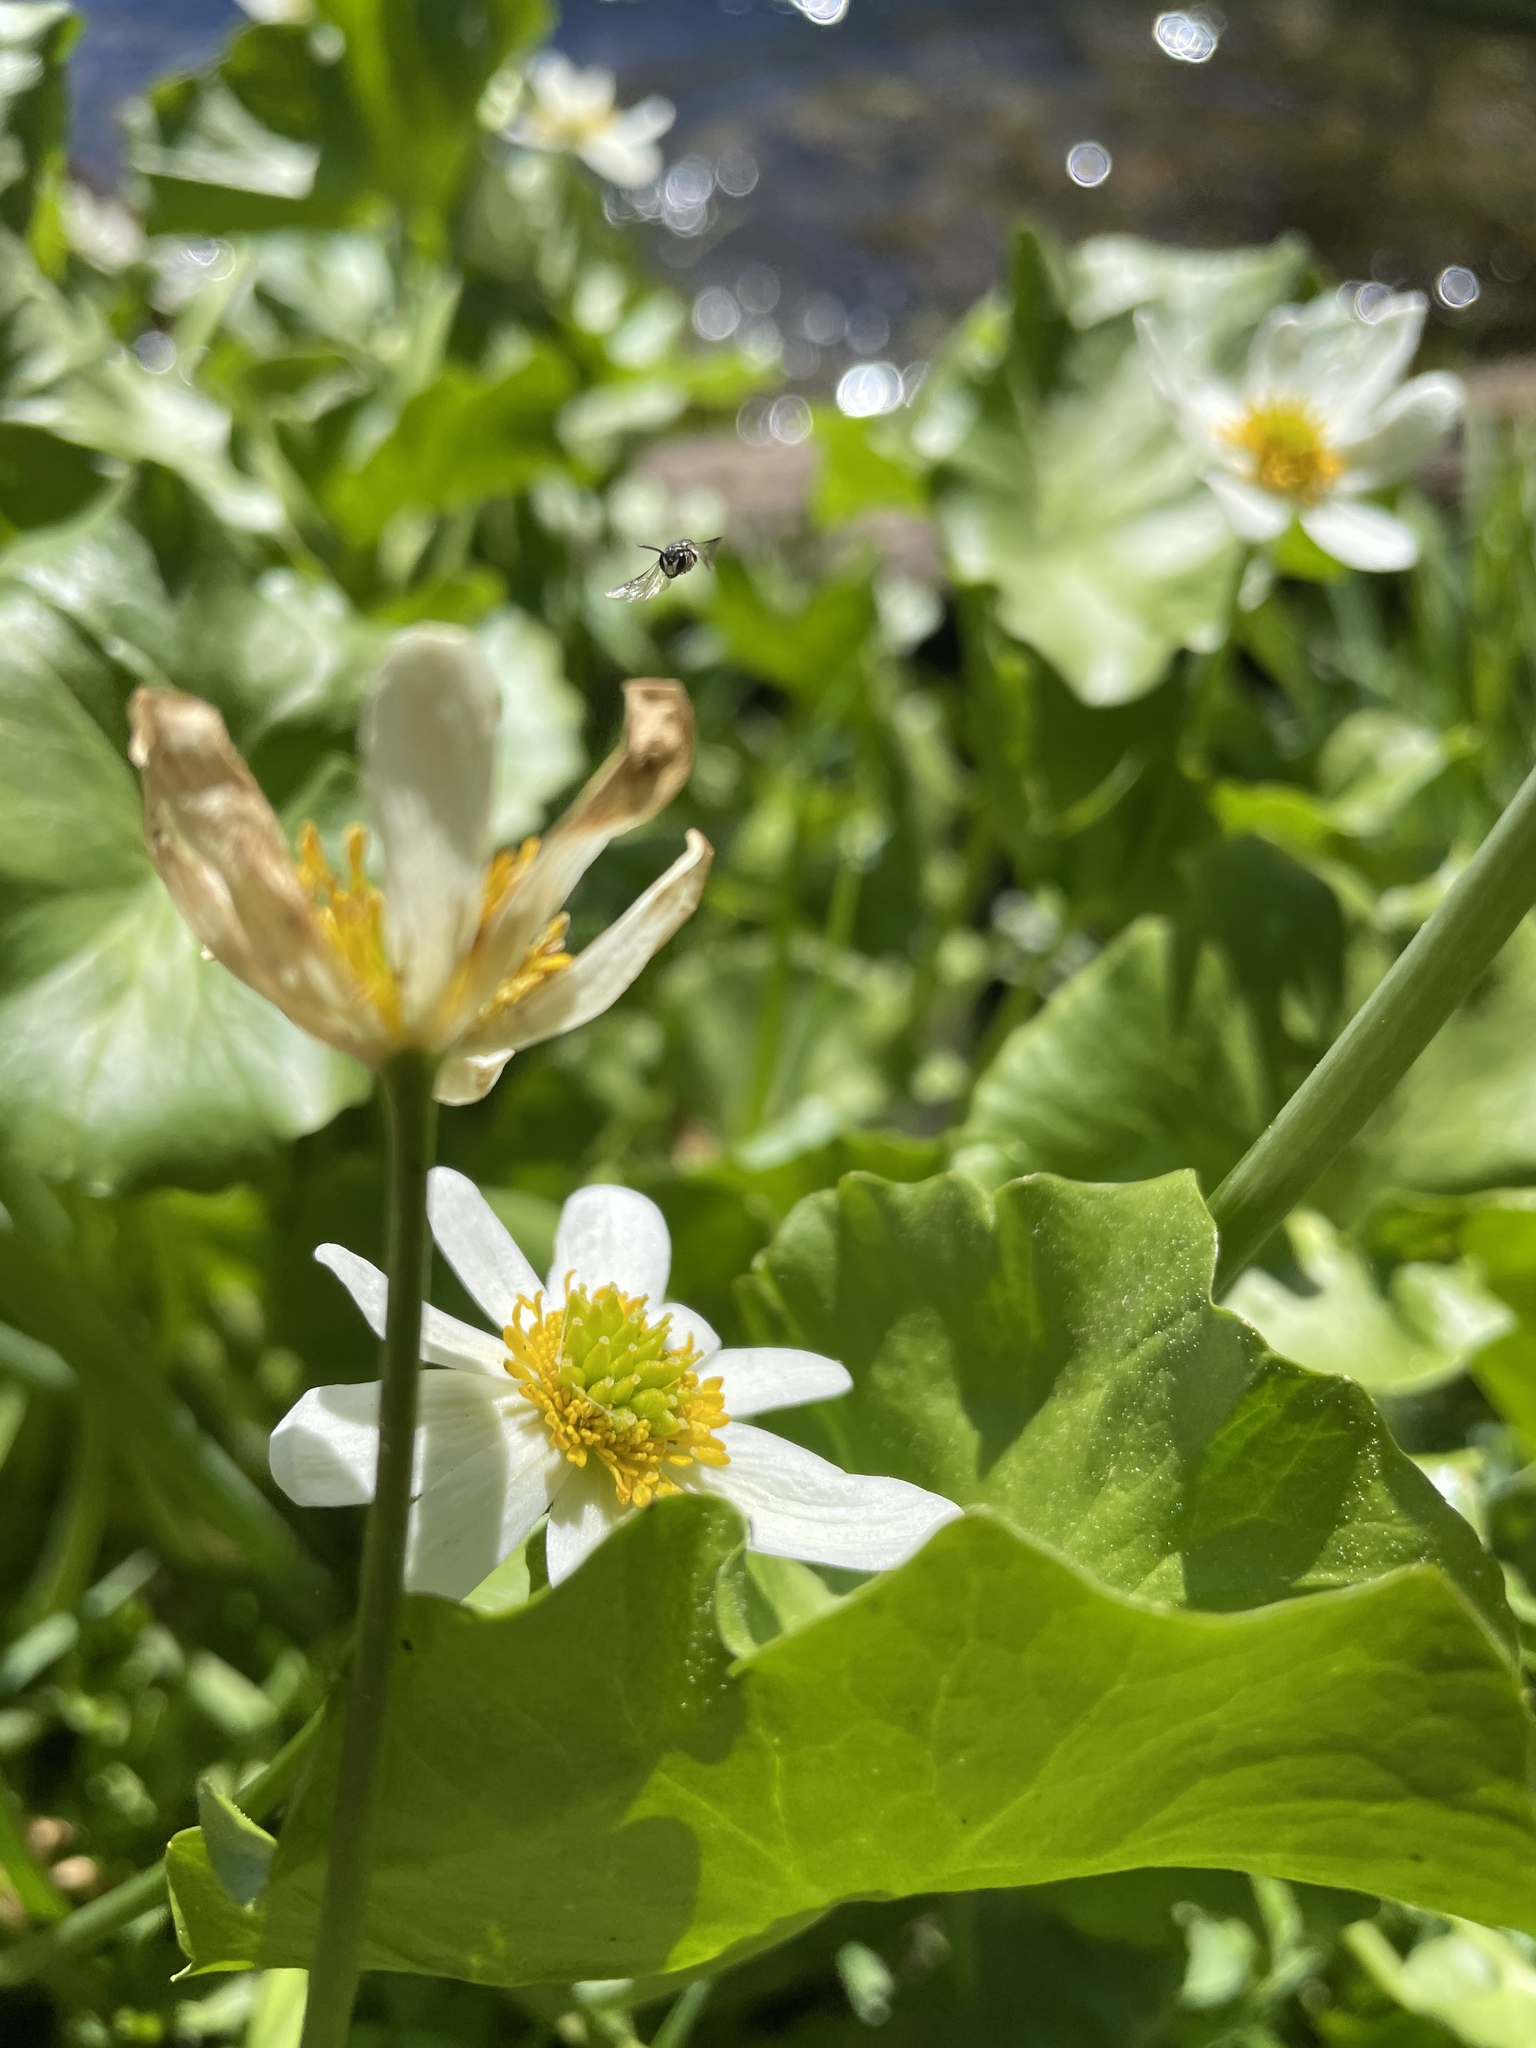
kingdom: Plantae
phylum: Tracheophyta
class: Magnoliopsida
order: Ranunculales
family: Ranunculaceae
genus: Caltha
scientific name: Caltha leptosepala
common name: Elkslip
